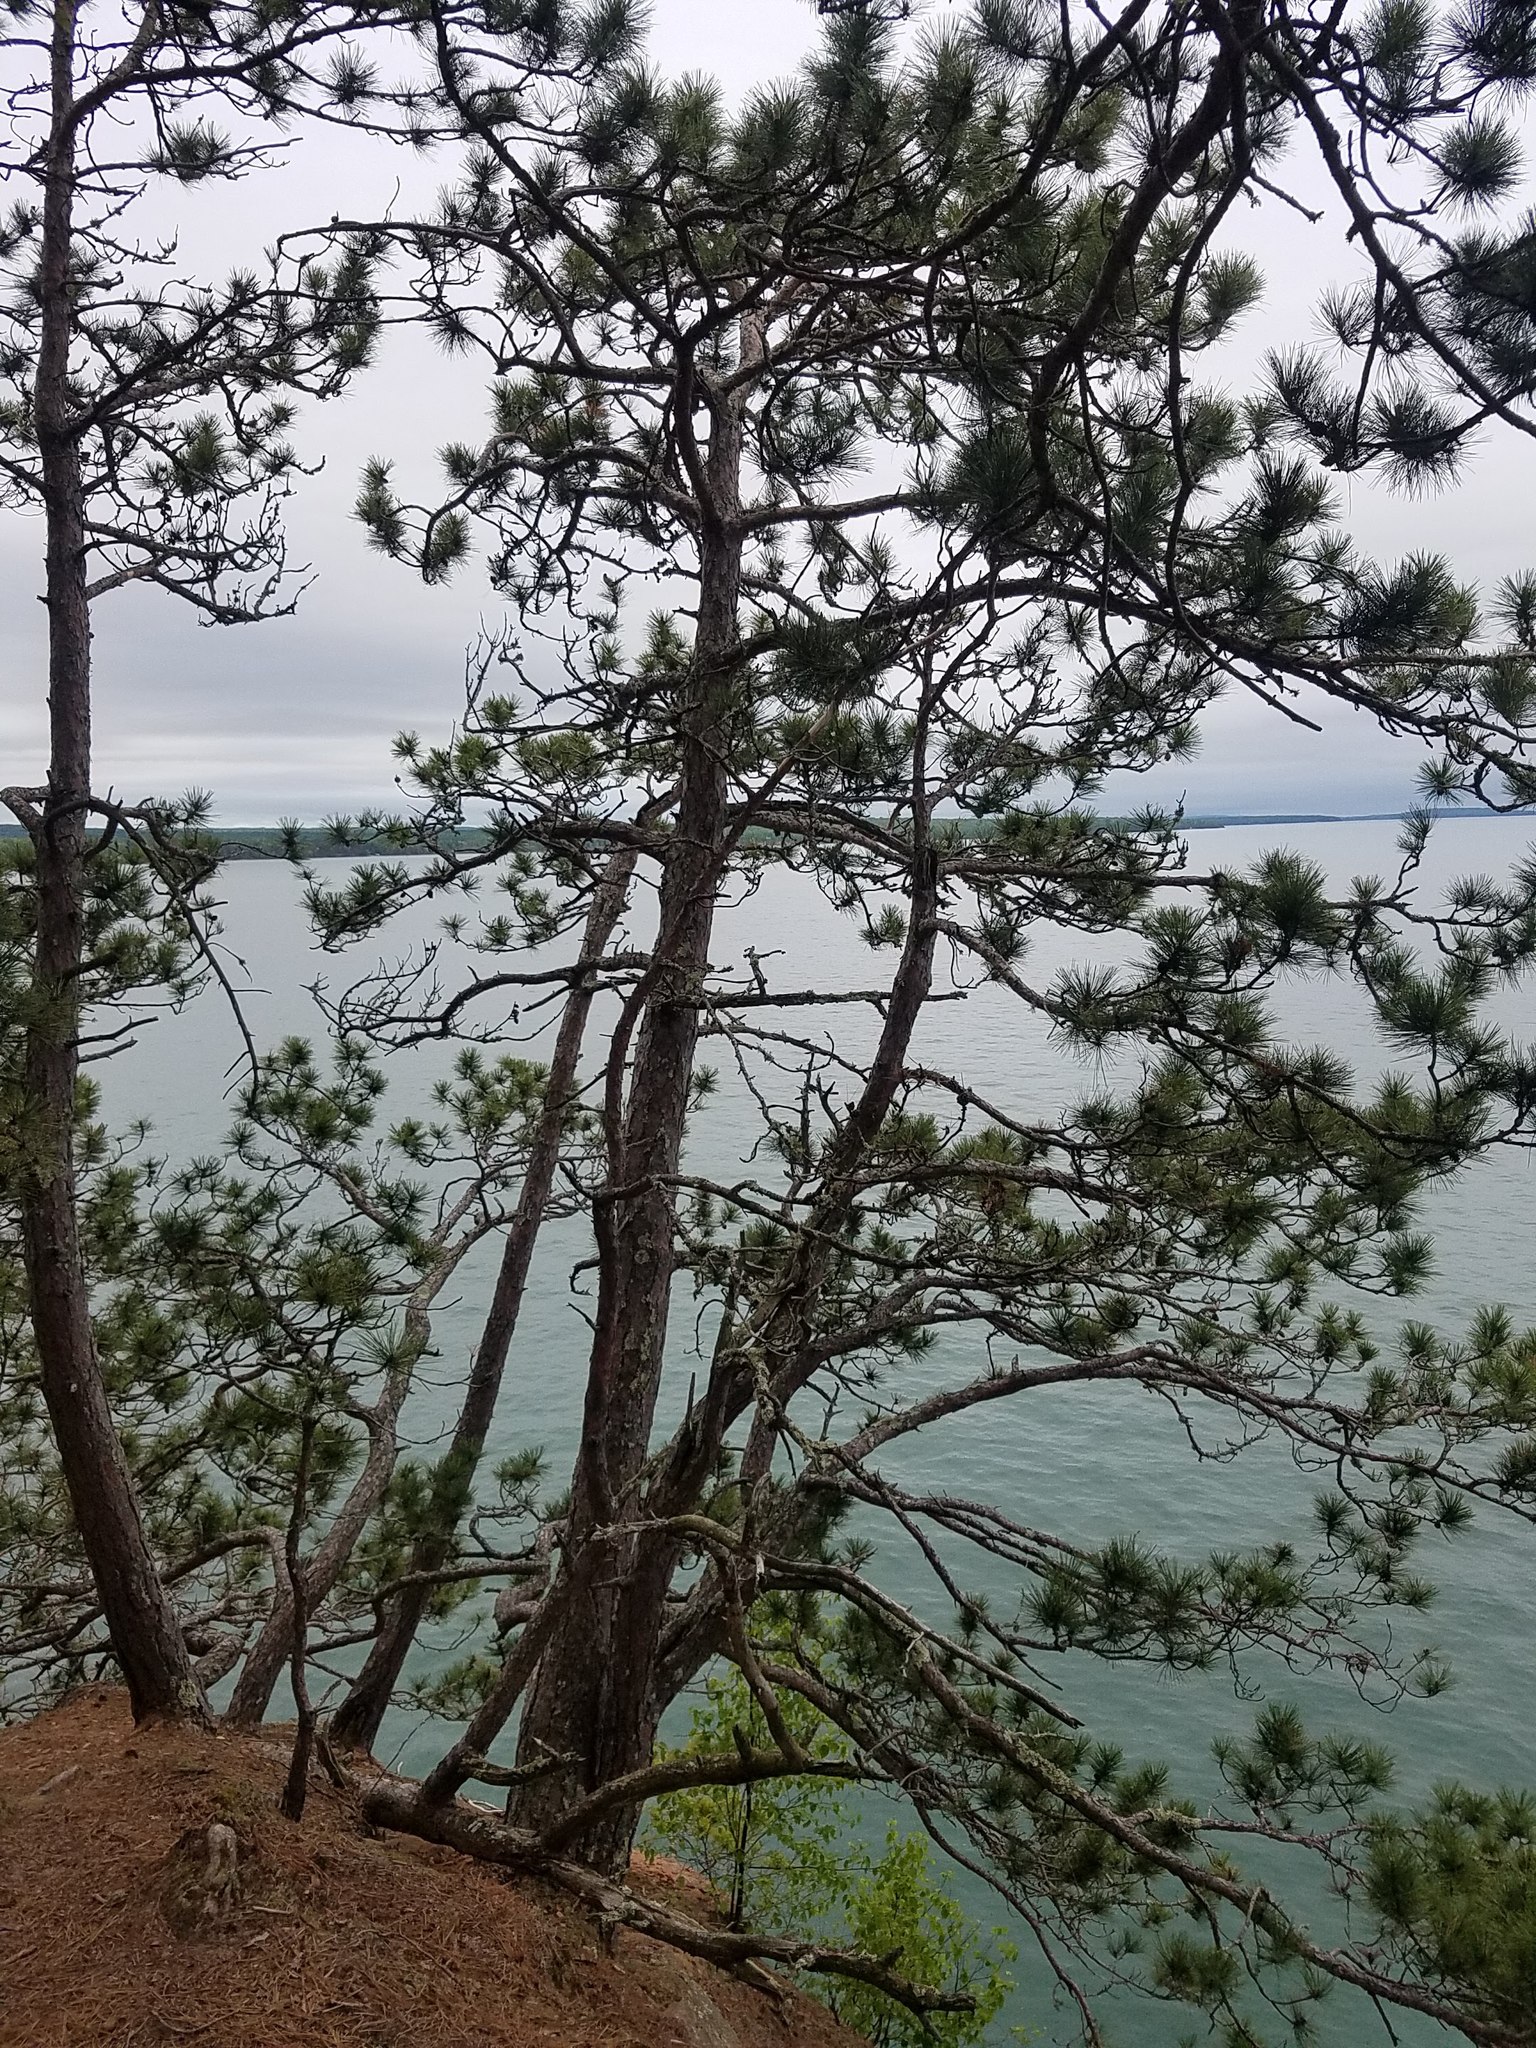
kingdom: Plantae
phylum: Tracheophyta
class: Pinopsida
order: Pinales
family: Pinaceae
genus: Pinus
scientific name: Pinus resinosa
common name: Norway pine
